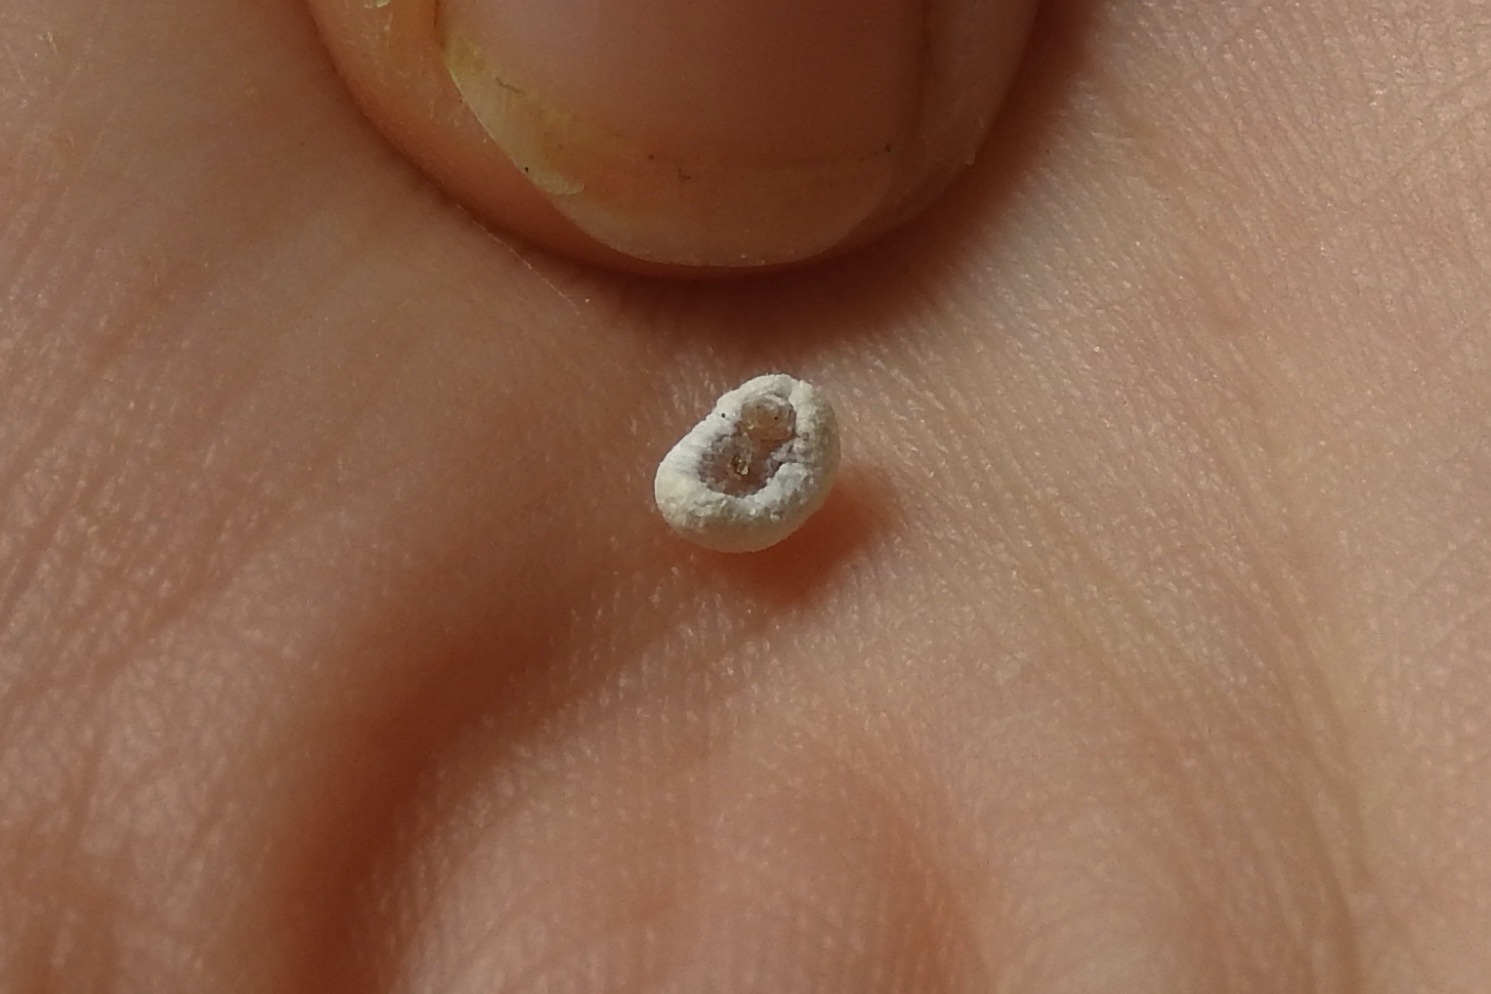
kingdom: Animalia
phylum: Arthropoda
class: Insecta
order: Lepidoptera
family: Epipyropidae
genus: Fulgoraecia
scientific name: Fulgoraecia exigua
